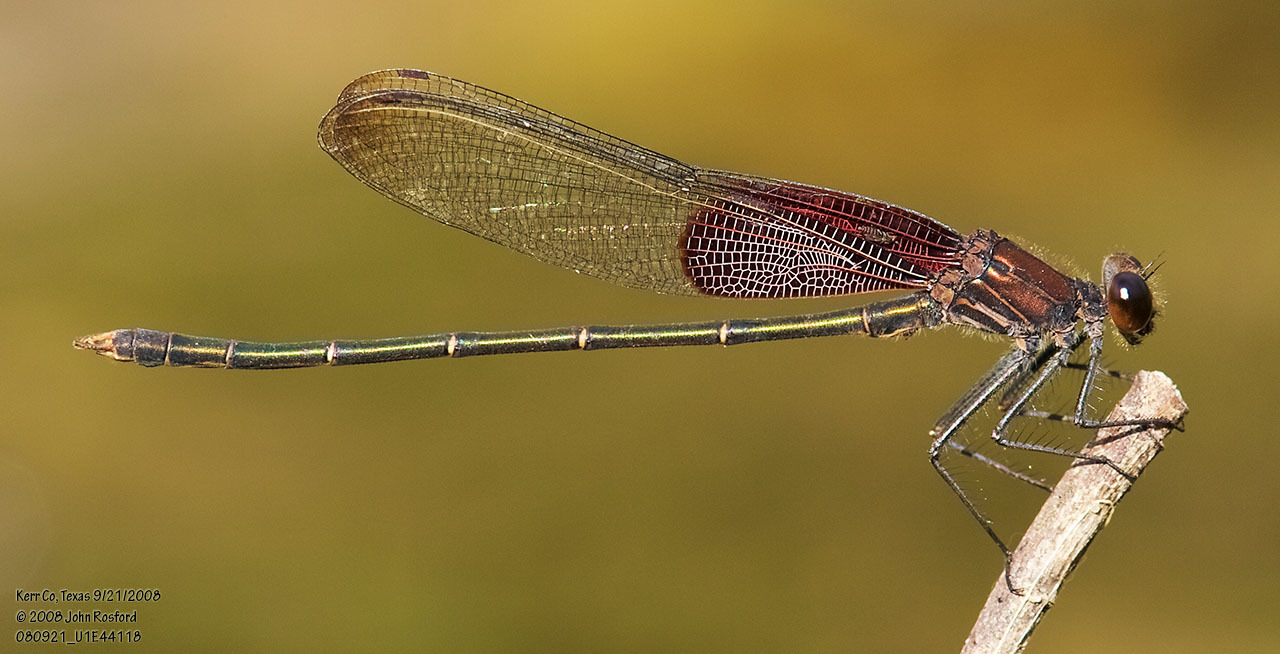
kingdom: Animalia
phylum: Arthropoda
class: Insecta
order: Odonata
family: Calopterygidae
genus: Hetaerina
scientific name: Hetaerina americana
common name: American rubyspot
